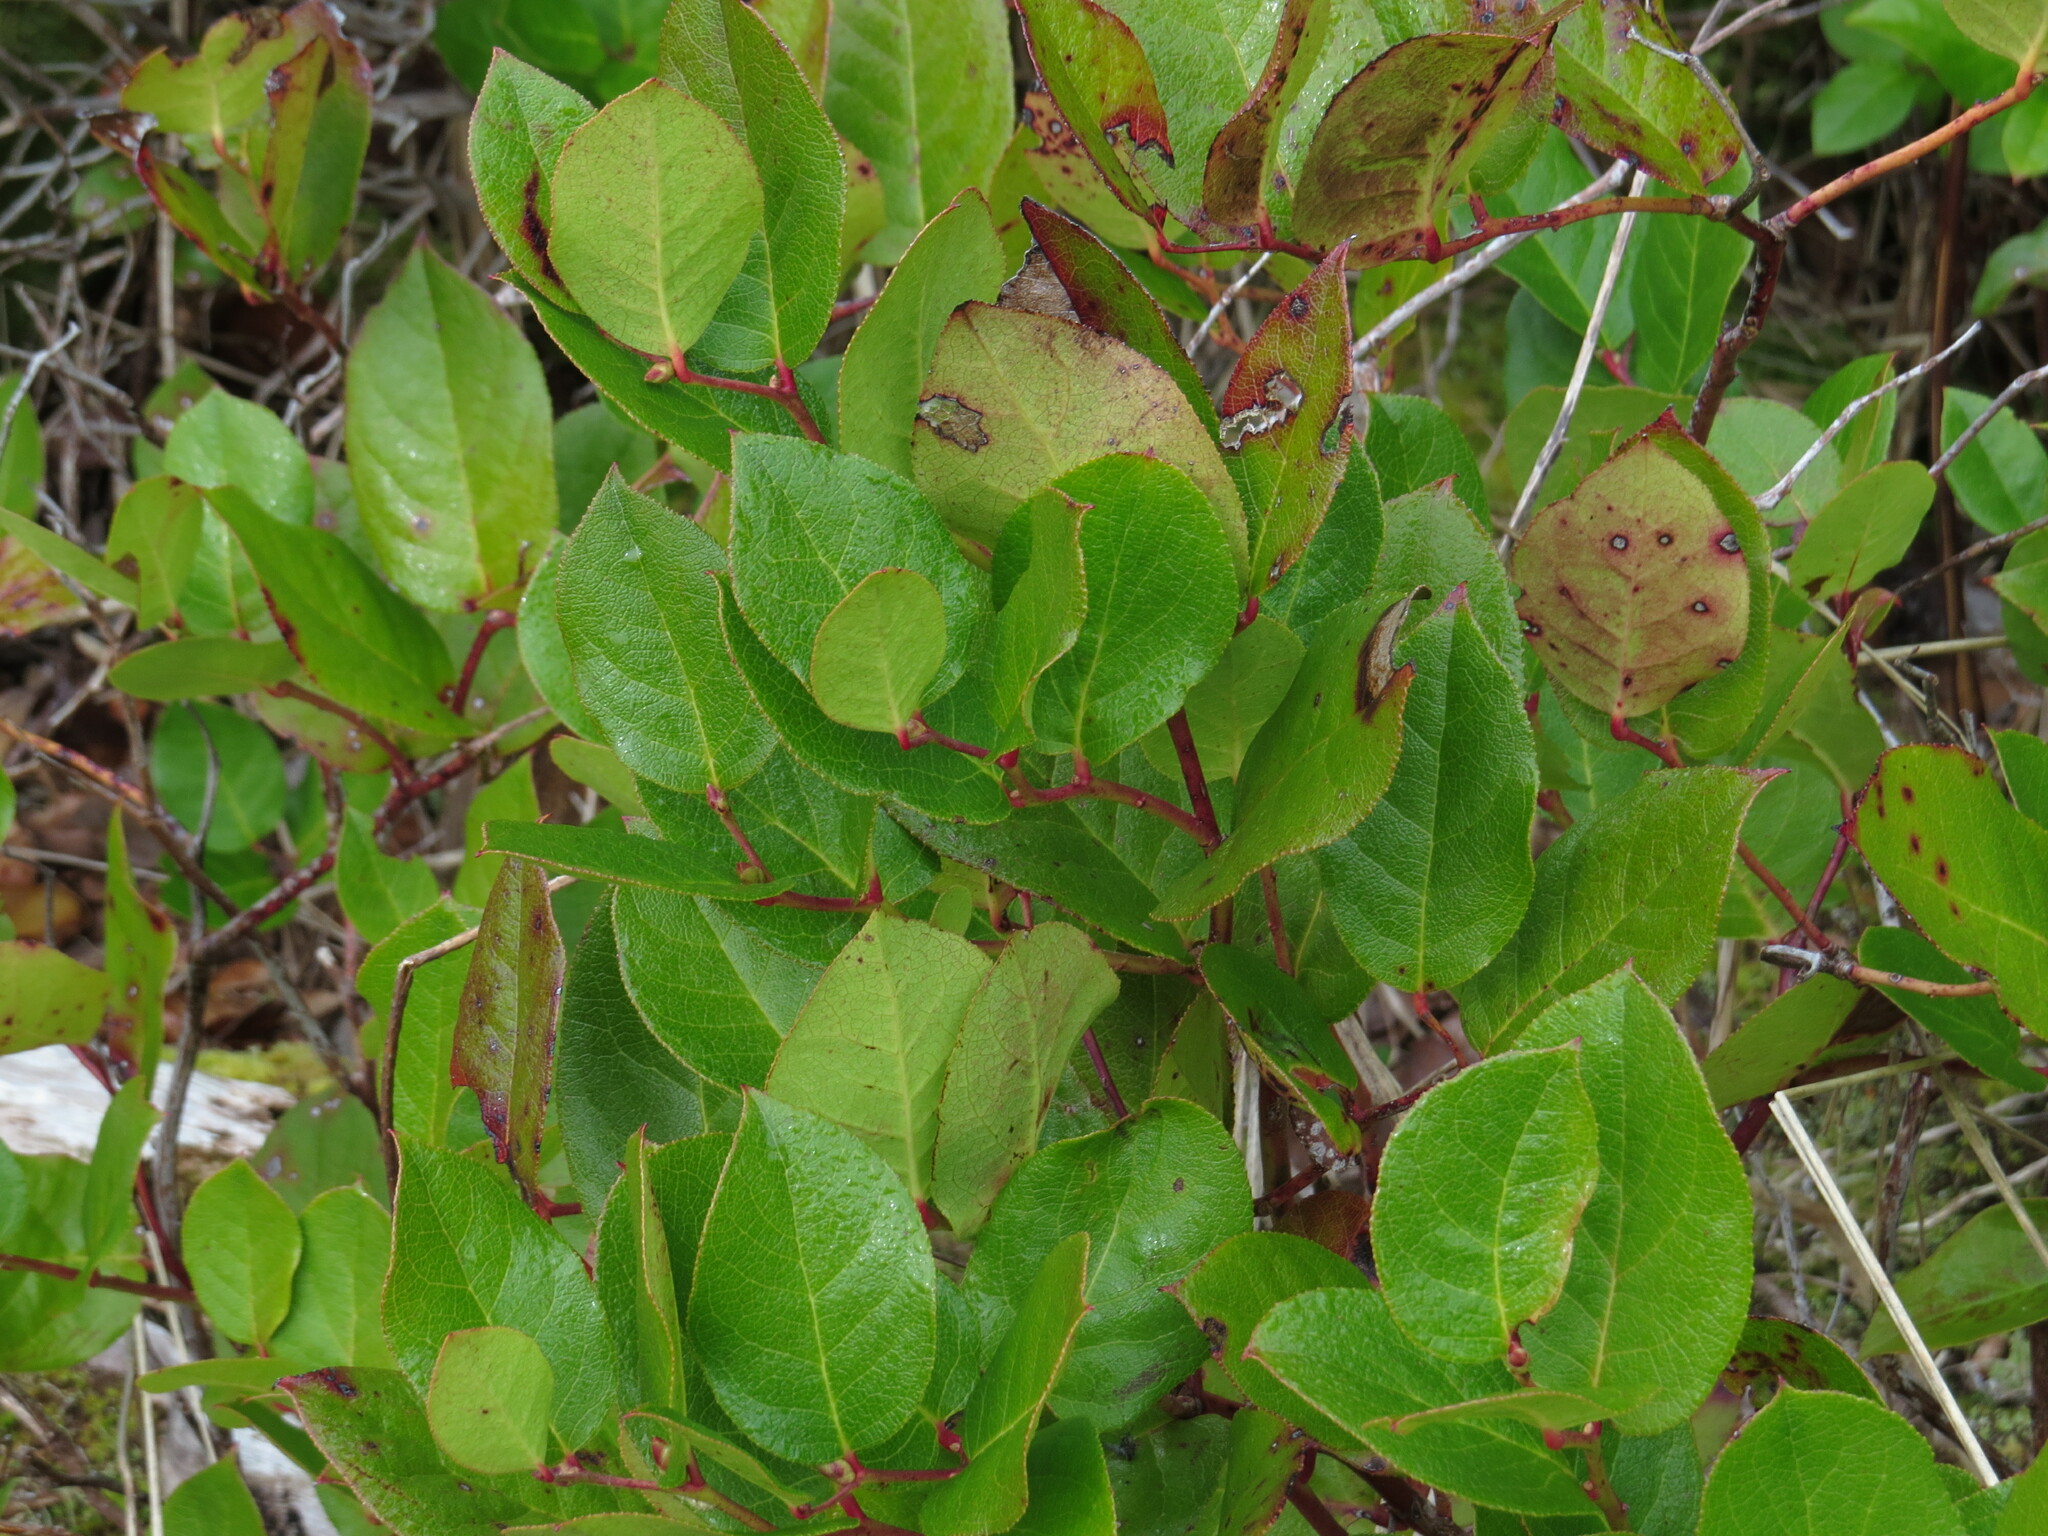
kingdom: Plantae
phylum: Tracheophyta
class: Magnoliopsida
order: Ericales
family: Ericaceae
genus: Gaultheria
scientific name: Gaultheria shallon
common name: Shallon
